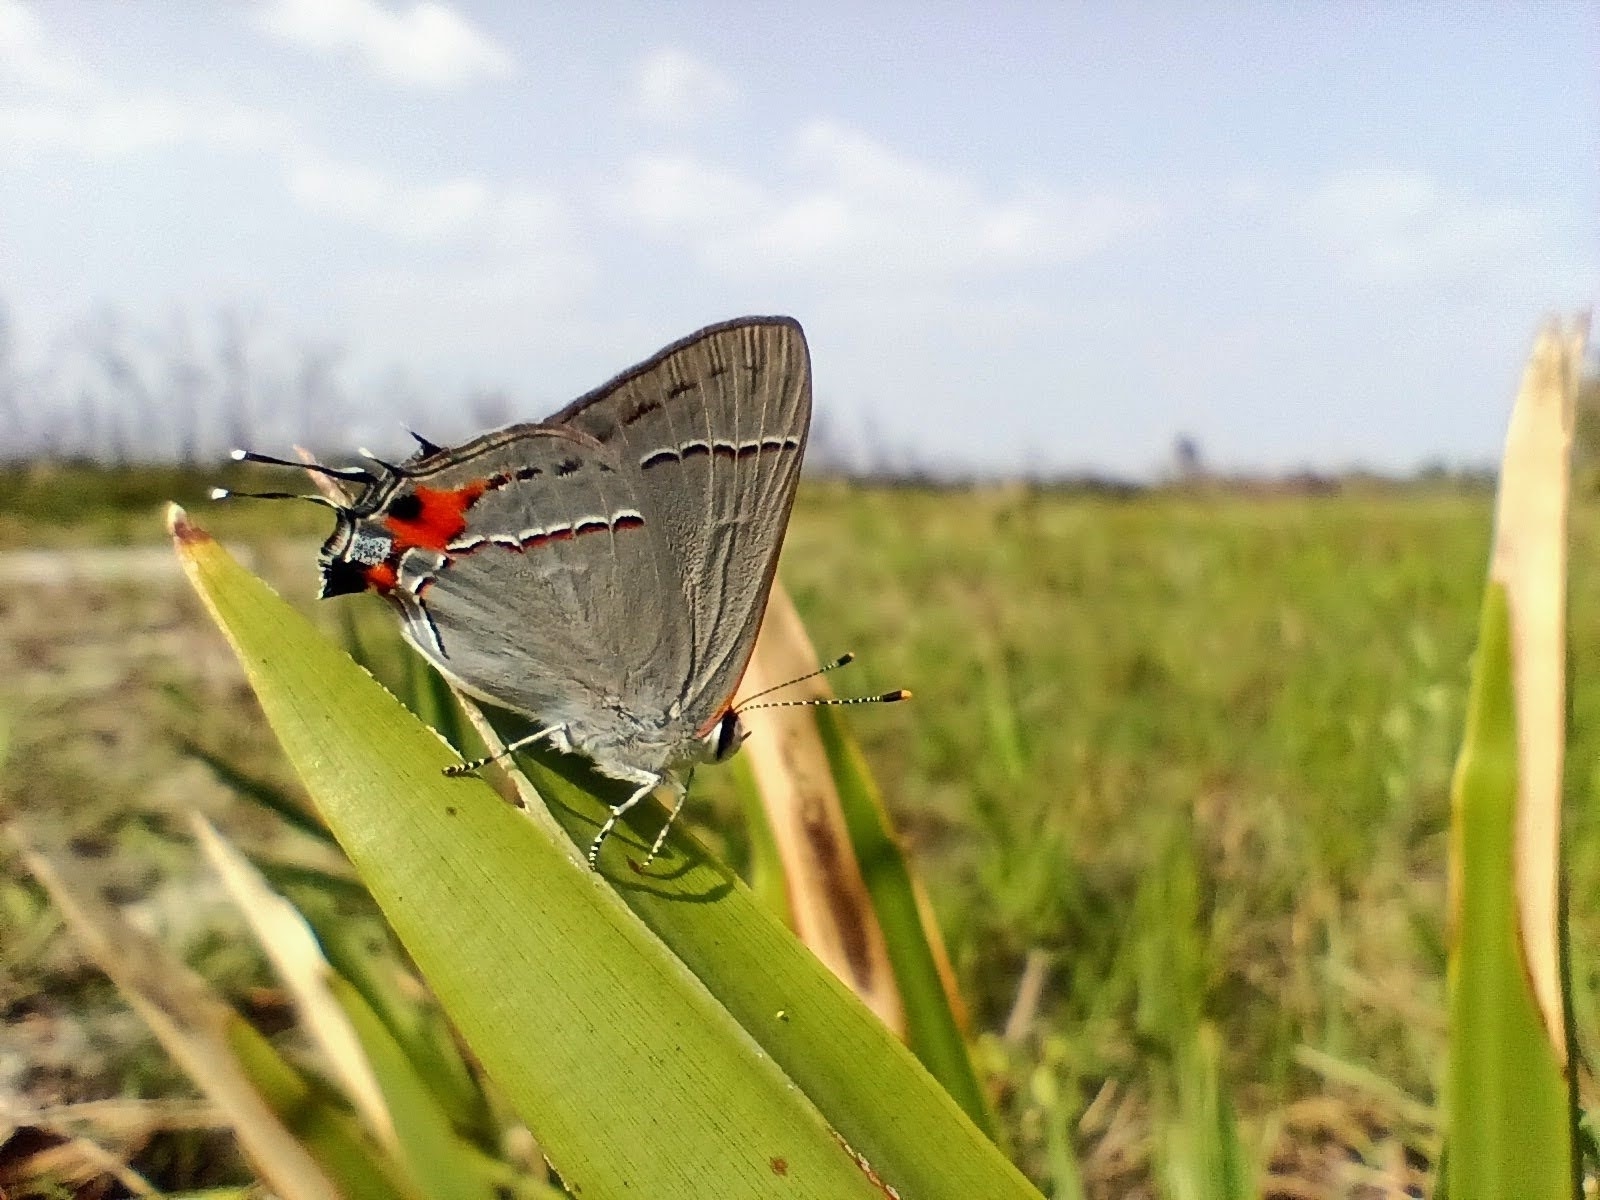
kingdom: Animalia
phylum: Arthropoda
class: Insecta
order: Lepidoptera
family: Lycaenidae
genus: Strymon
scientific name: Strymon melinus
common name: Gray hairstreak
